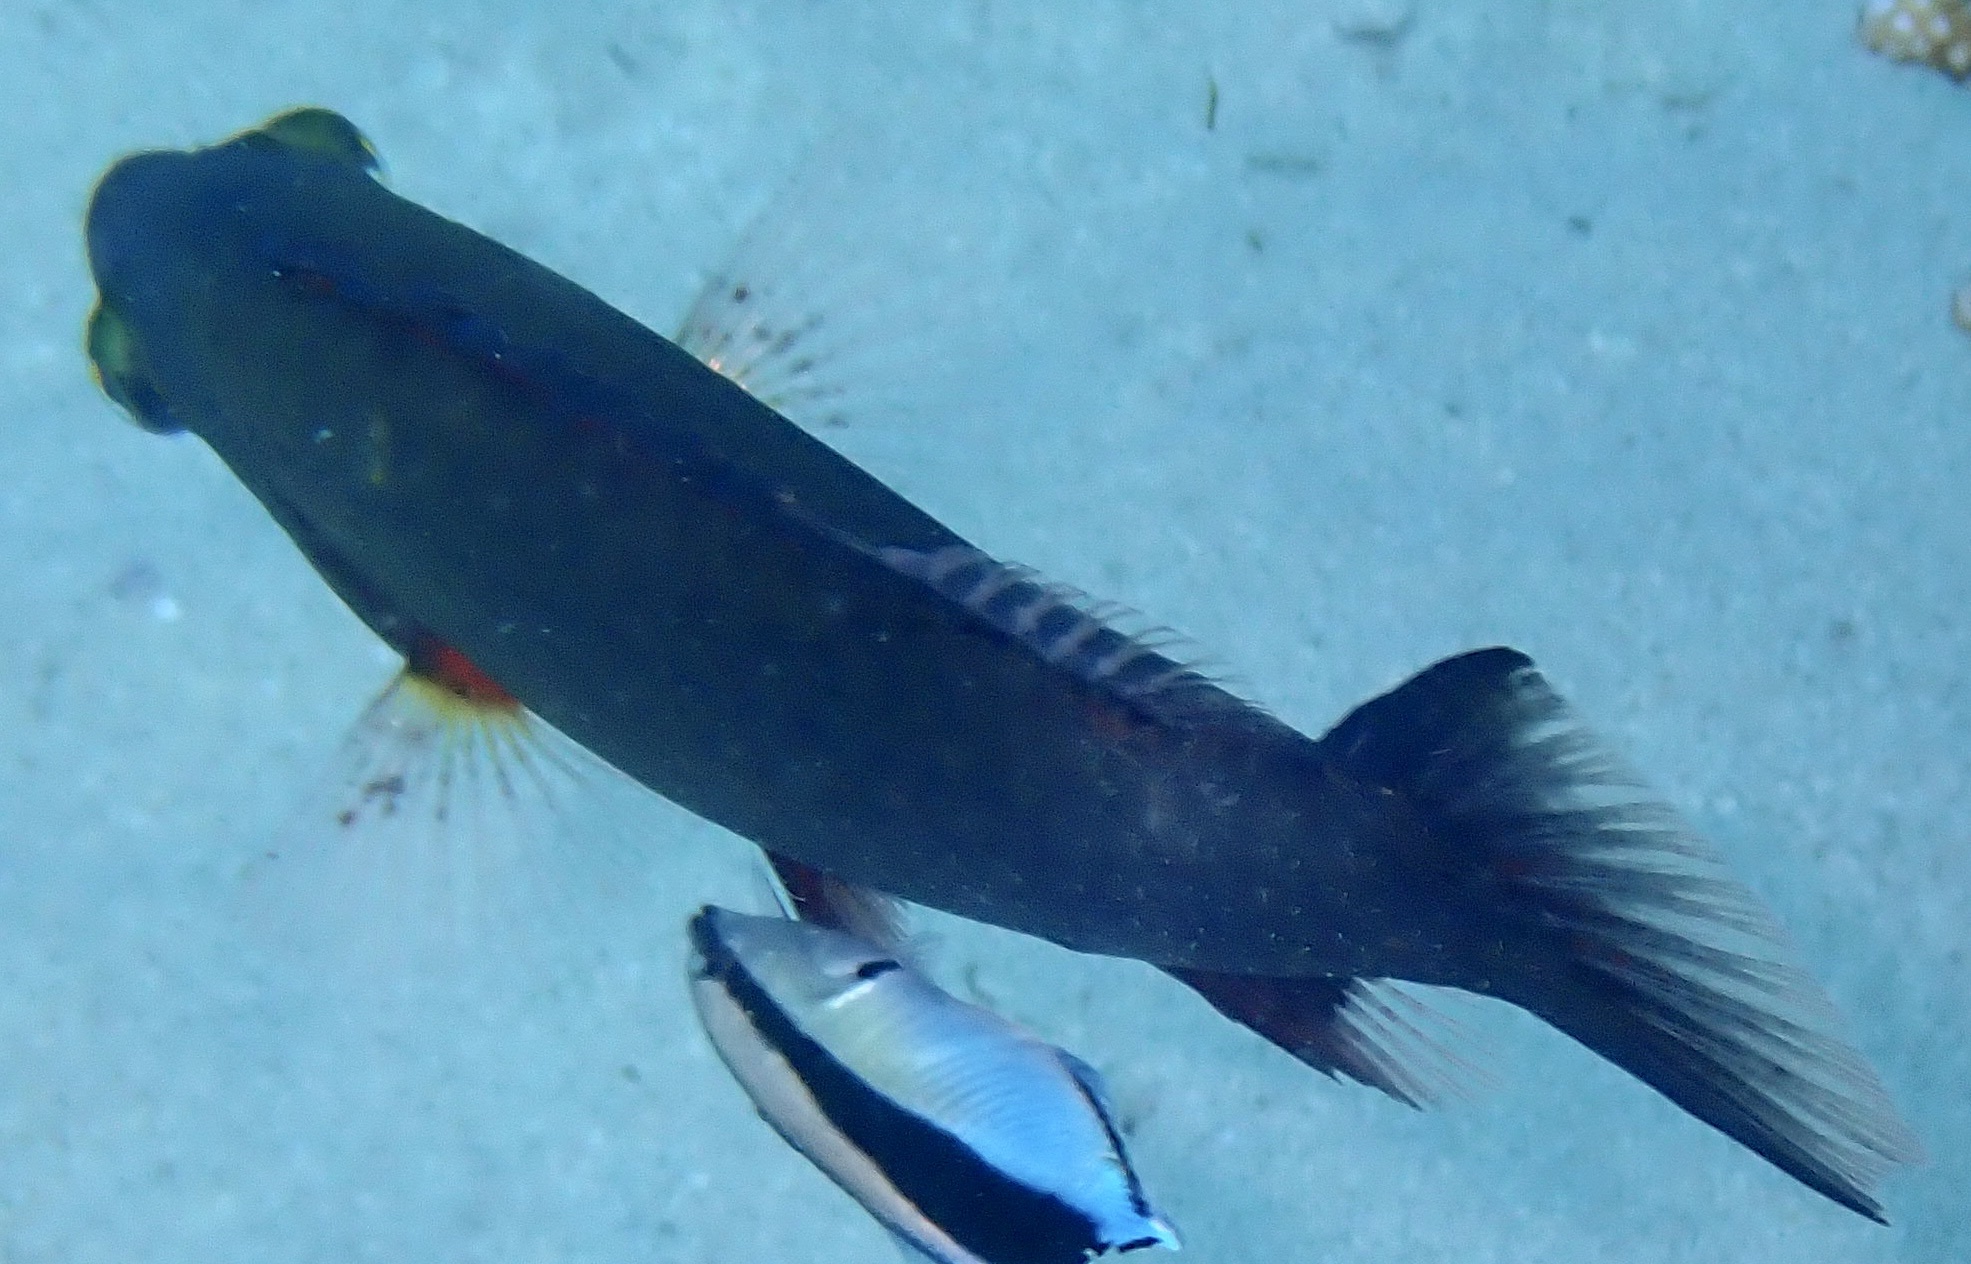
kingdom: Animalia
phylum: Chordata
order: Perciformes
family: Labridae
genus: Oxycheilinus
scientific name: Oxycheilinus digramma
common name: Bandcheek wrasse
